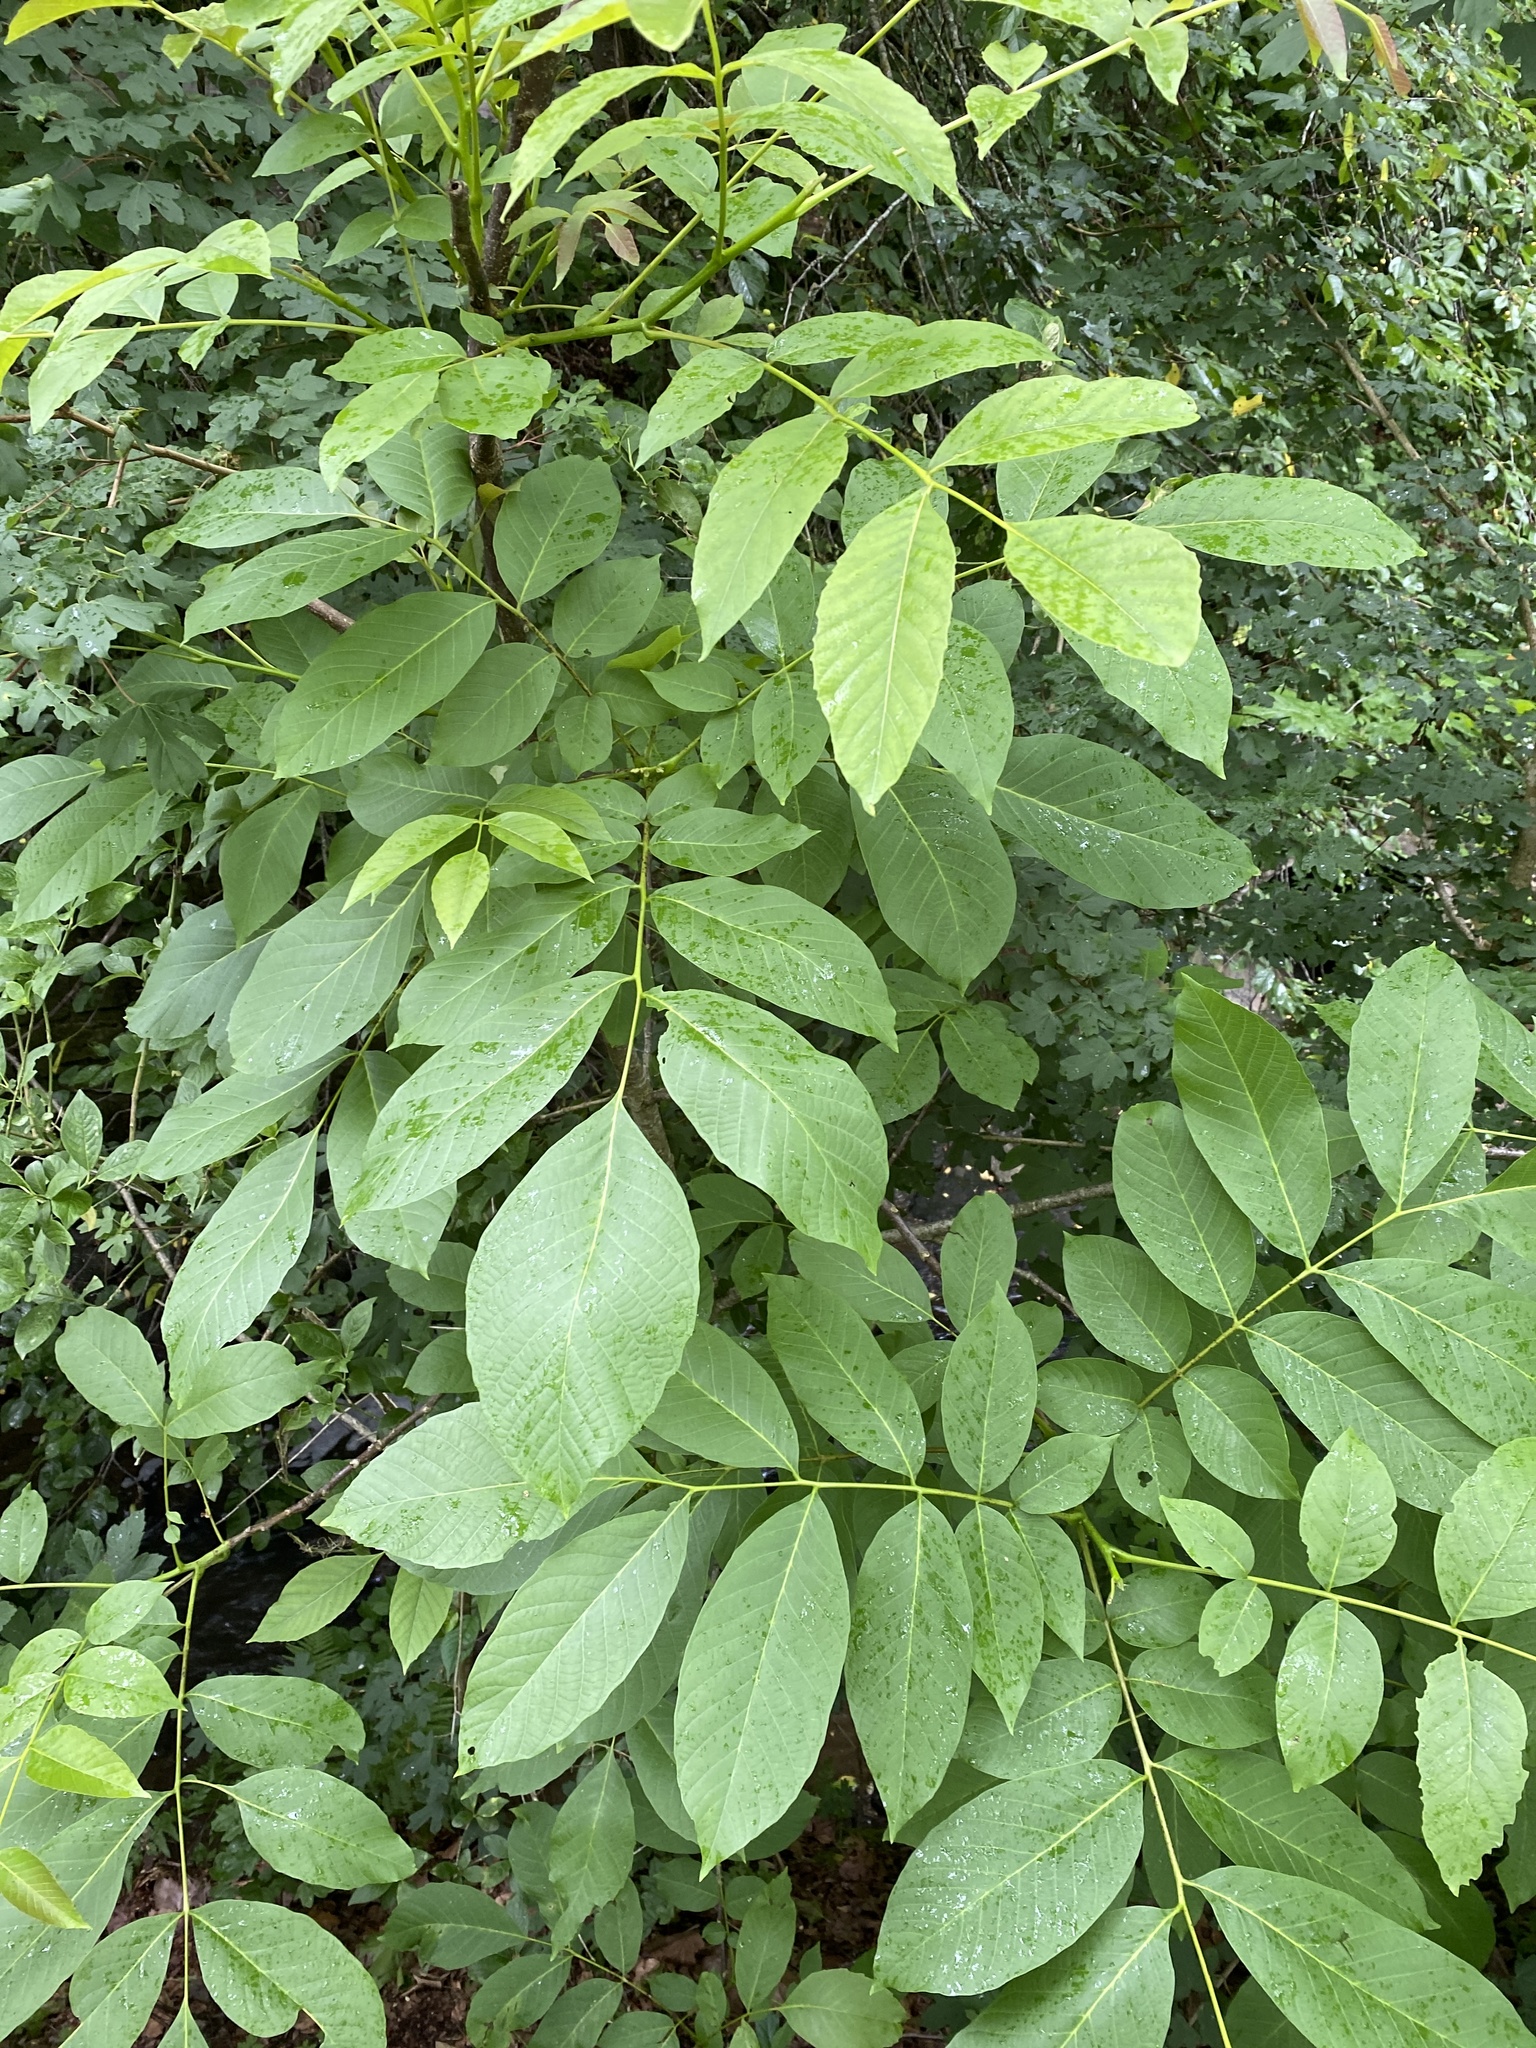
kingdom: Plantae
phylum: Tracheophyta
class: Magnoliopsida
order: Fagales
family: Juglandaceae
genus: Juglans
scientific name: Juglans regia
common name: Walnut
